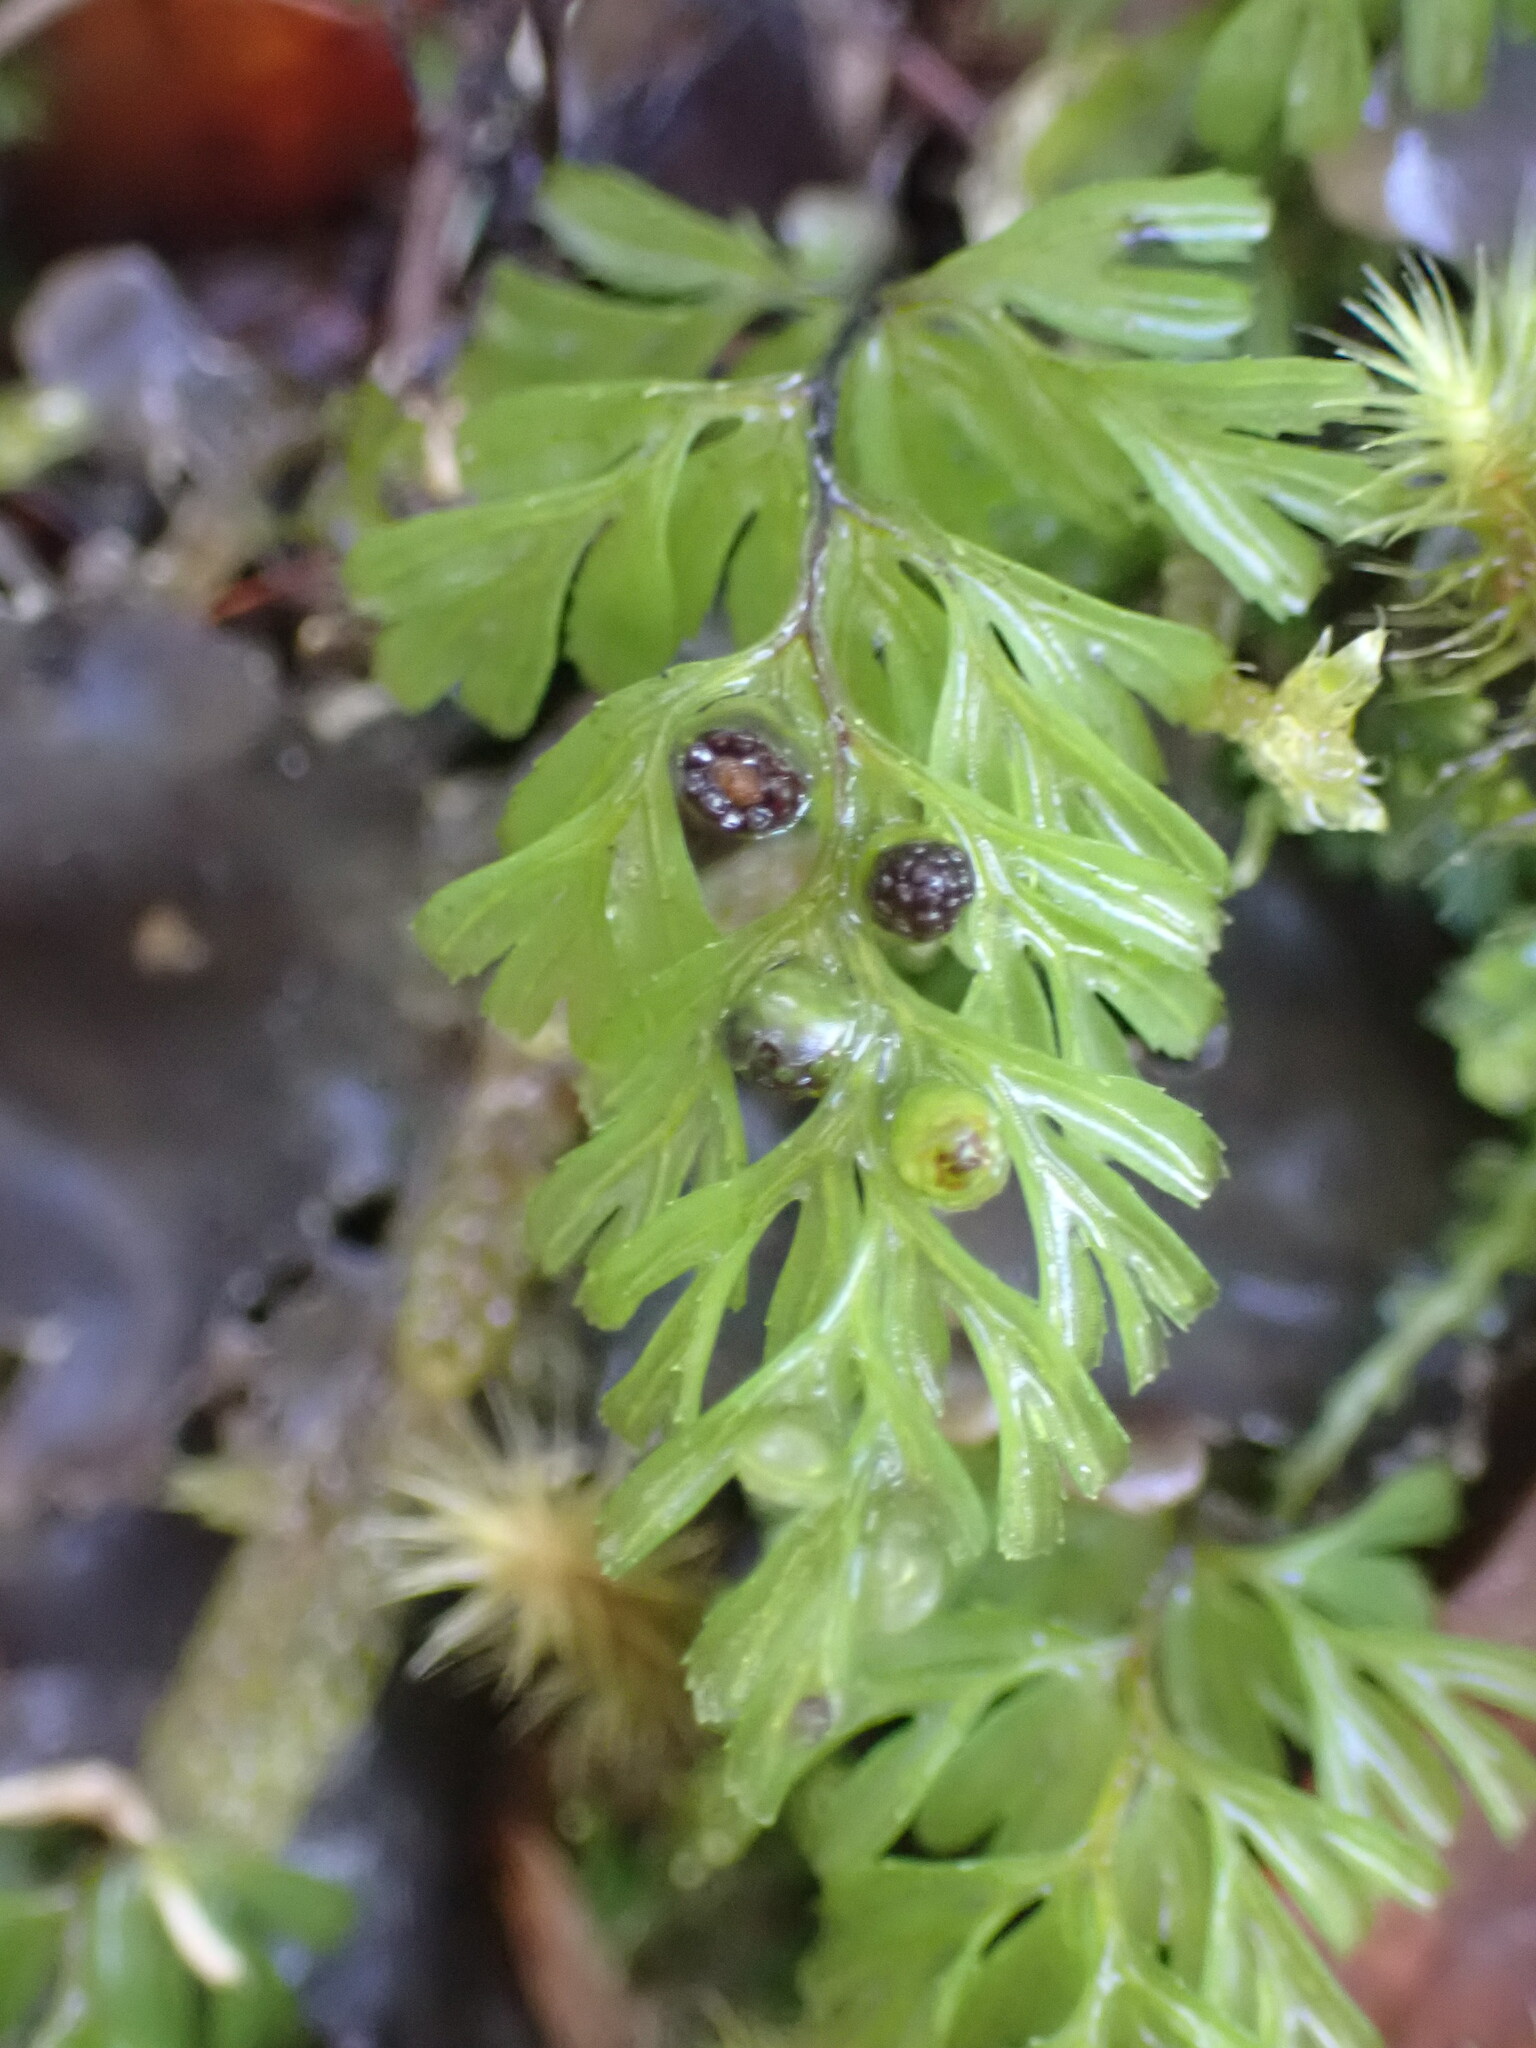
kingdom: Plantae
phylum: Tracheophyta
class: Polypodiopsida
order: Hymenophyllales
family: Hymenophyllaceae
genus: Hymenophyllum
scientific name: Hymenophyllum cupressiforme
